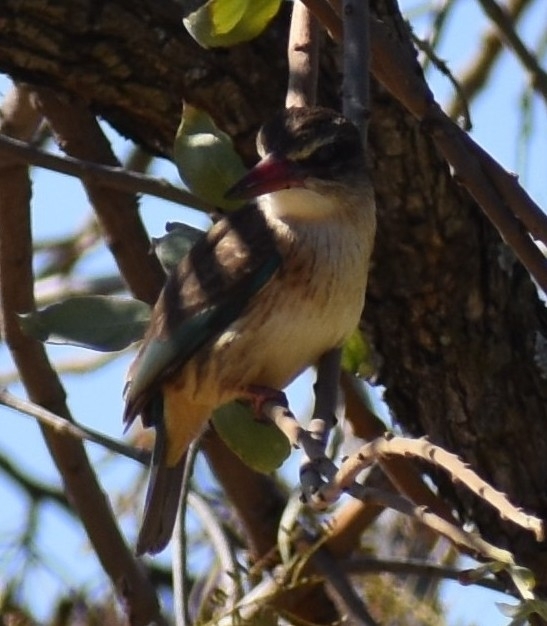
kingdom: Animalia
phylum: Chordata
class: Aves
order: Coraciiformes
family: Alcedinidae
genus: Halcyon
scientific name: Halcyon albiventris
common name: Brown-hooded kingfisher
